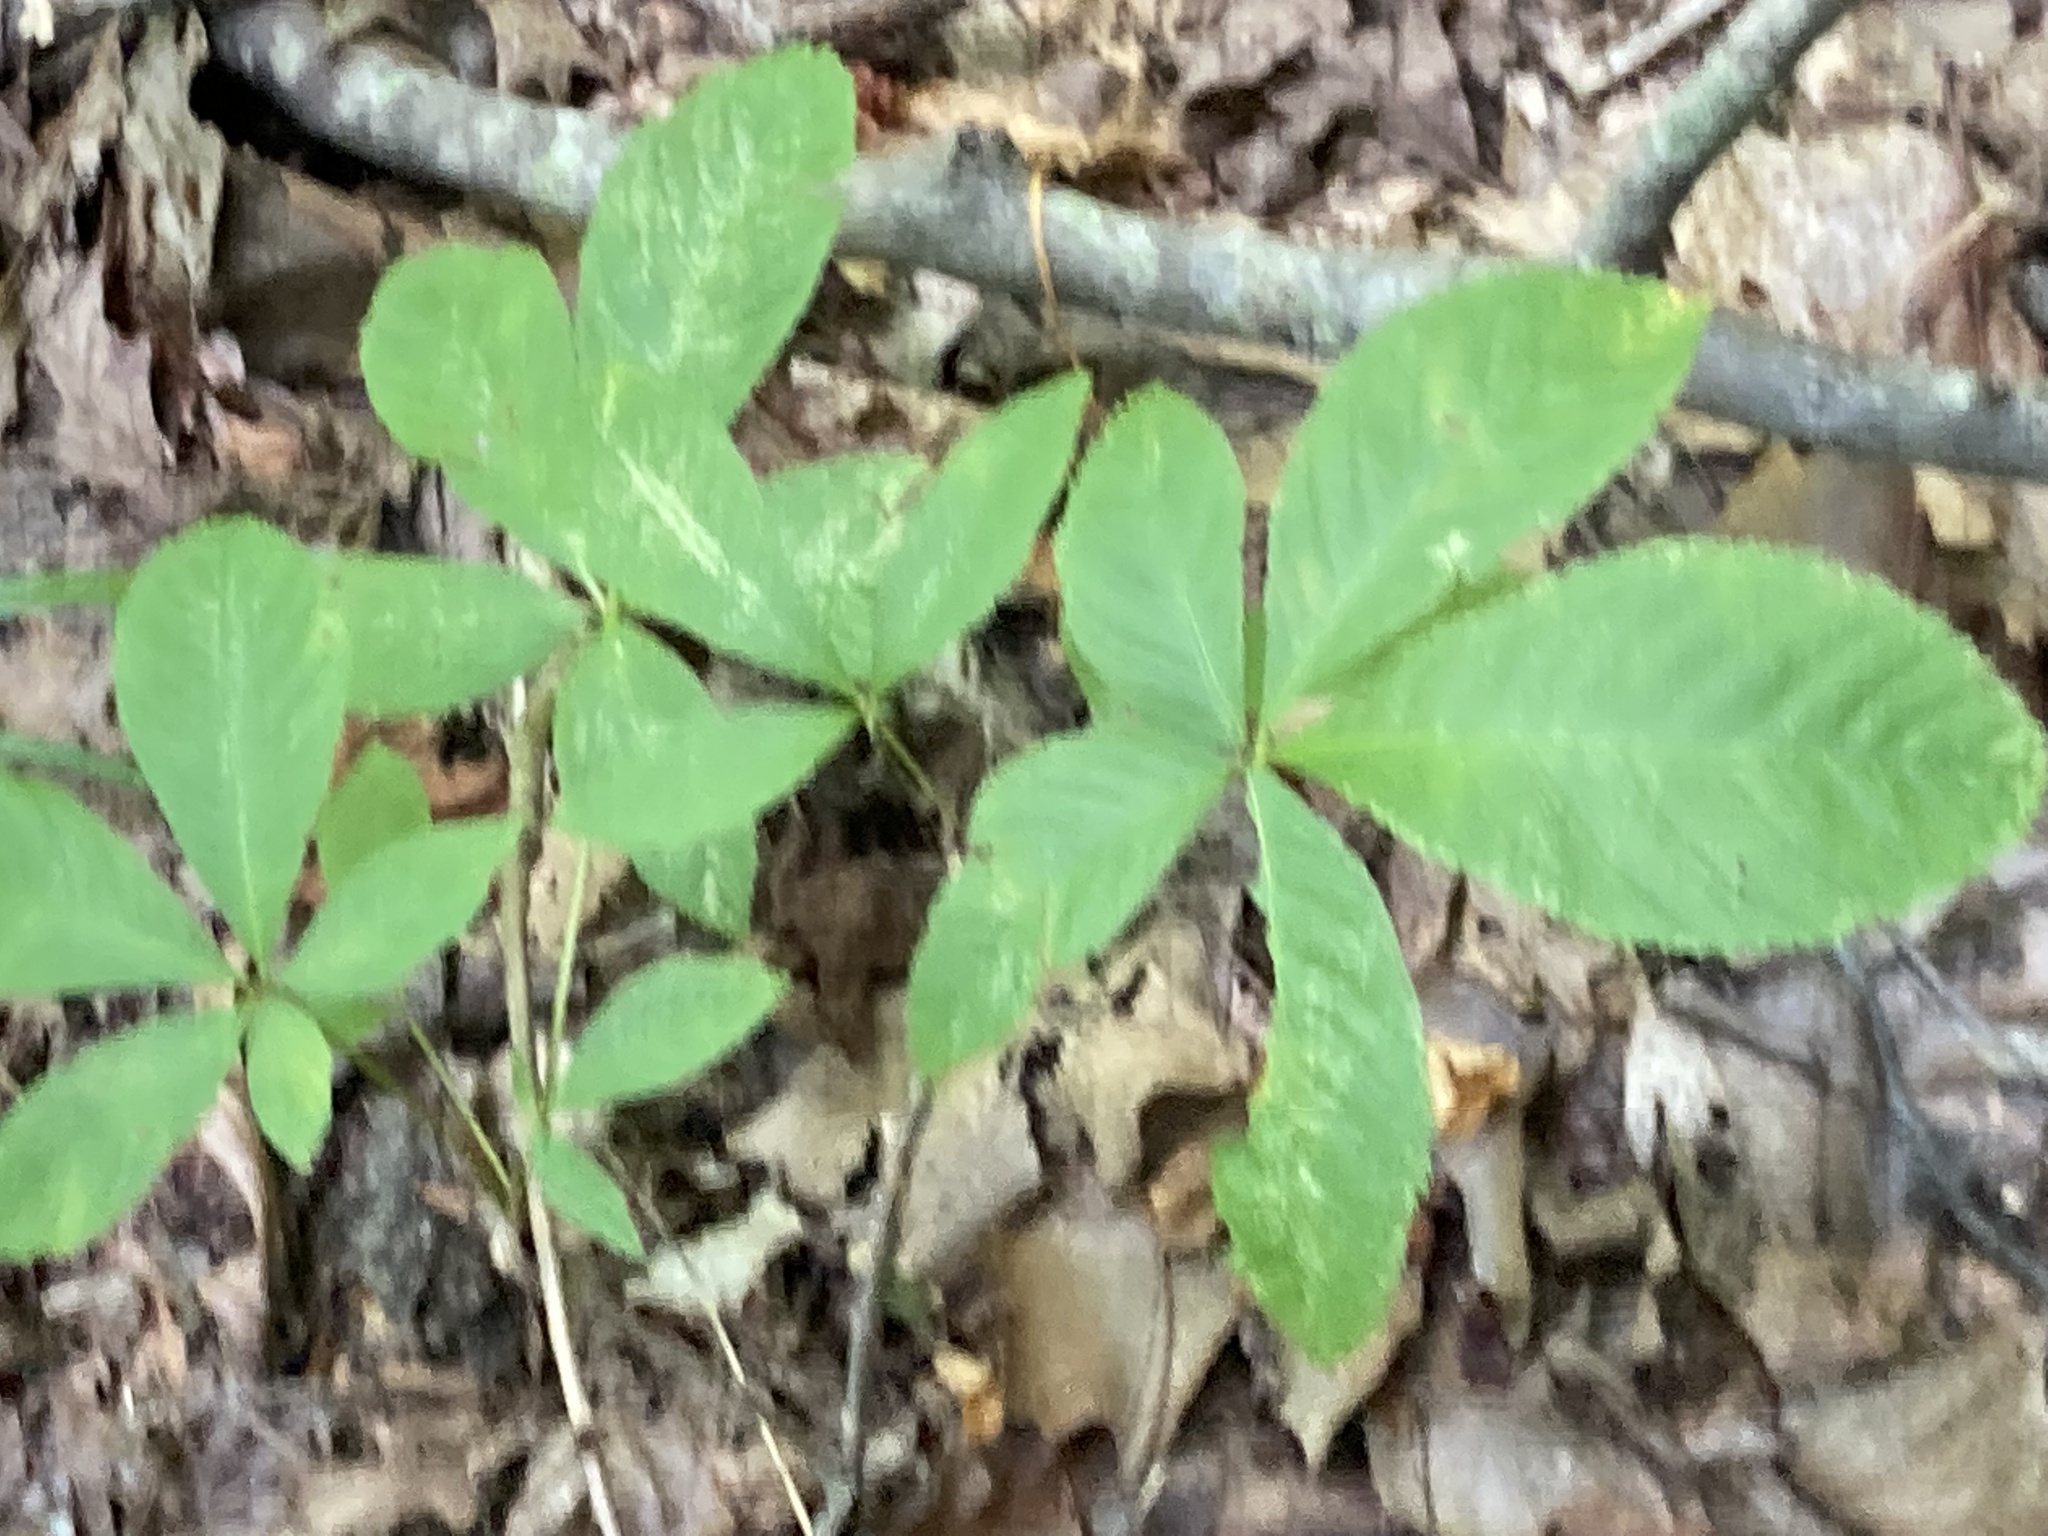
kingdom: Plantae
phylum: Tracheophyta
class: Magnoliopsida
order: Sapindales
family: Sapindaceae
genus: Aesculus
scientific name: Aesculus pavia
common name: Red buckeye
